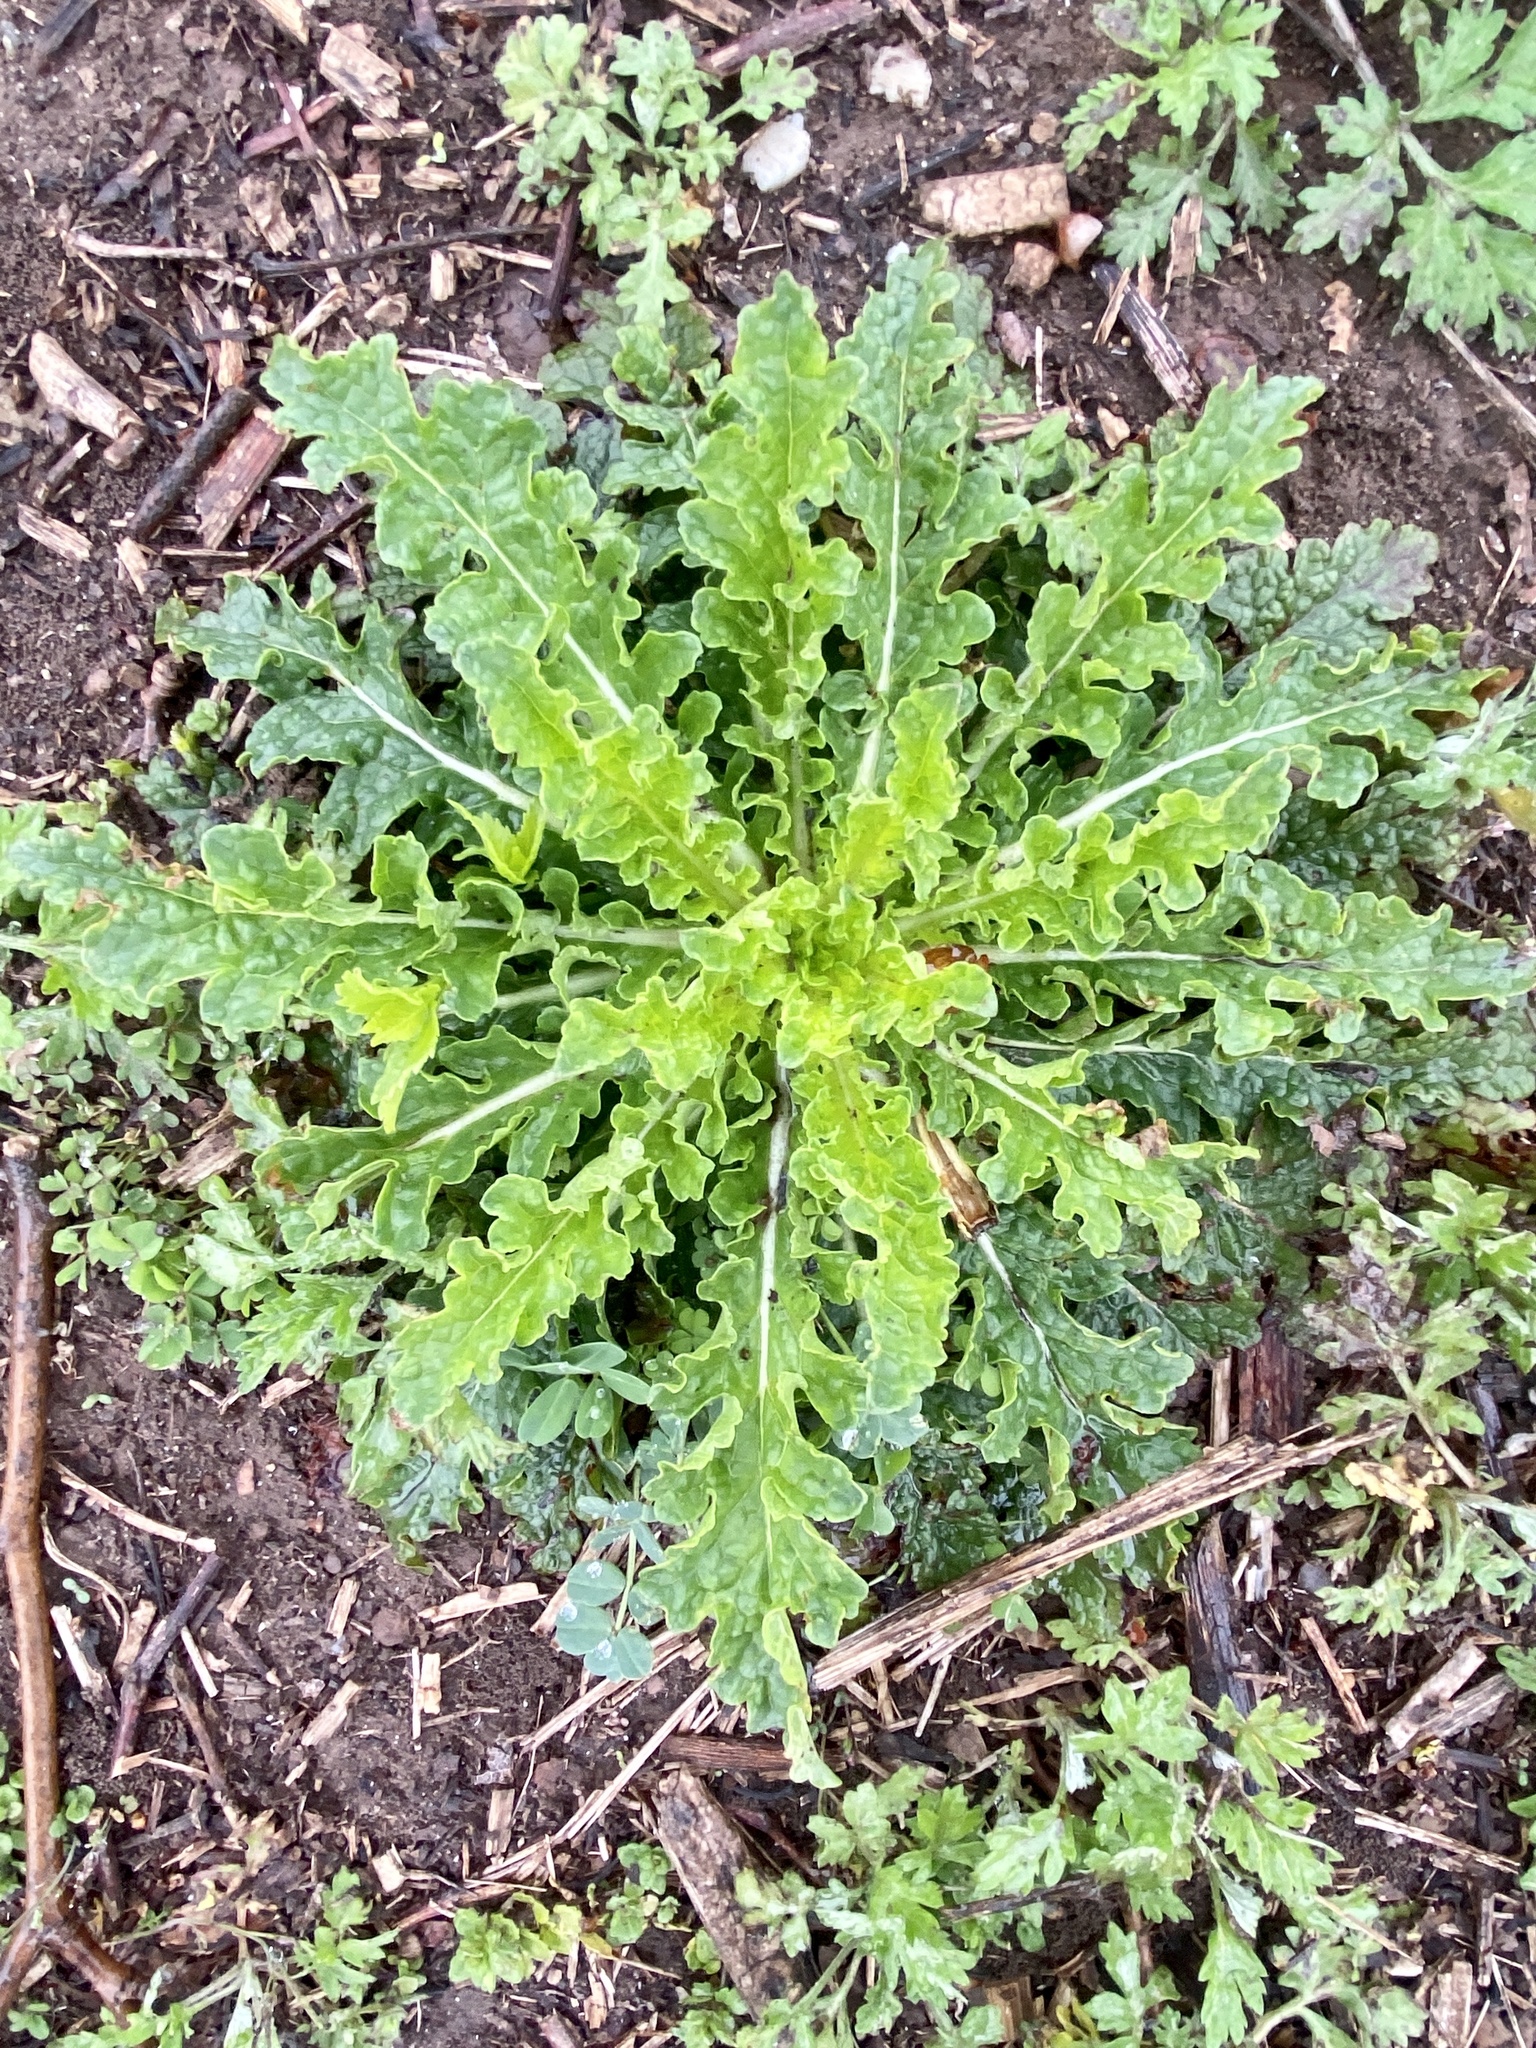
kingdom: Plantae
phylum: Tracheophyta
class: Magnoliopsida
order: Lamiales
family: Scrophulariaceae
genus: Verbascum
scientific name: Verbascum blattaria
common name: Moth mullein
